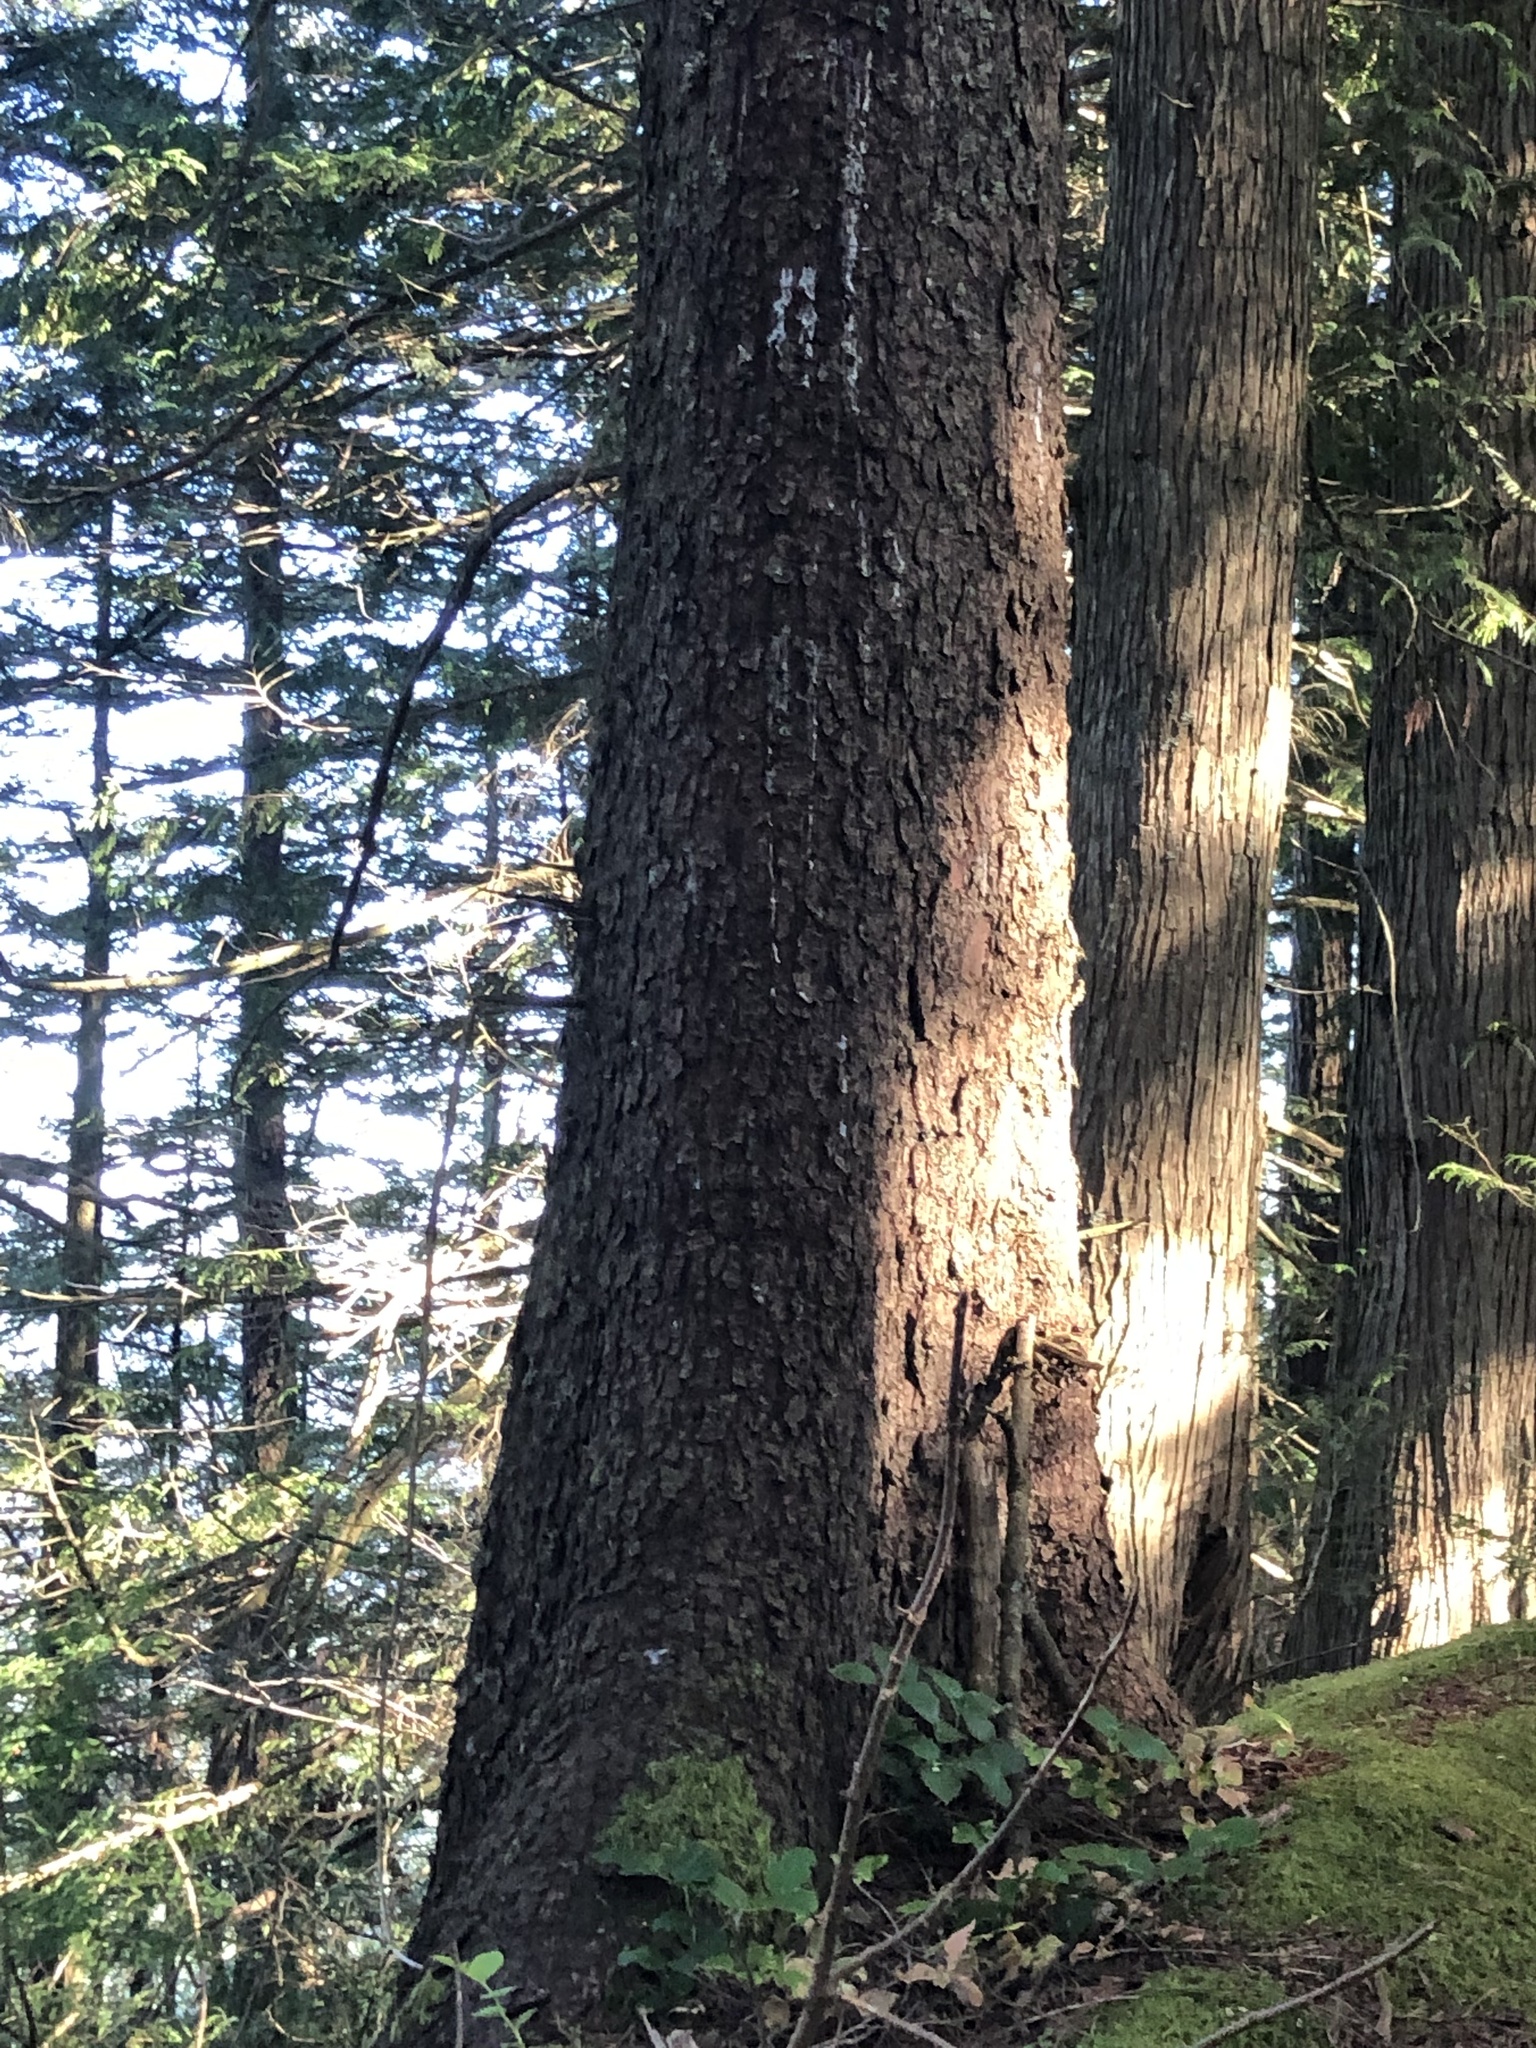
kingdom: Plantae
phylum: Tracheophyta
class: Pinopsida
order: Pinales
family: Pinaceae
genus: Picea
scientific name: Picea sitchensis
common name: Sitka spruce
